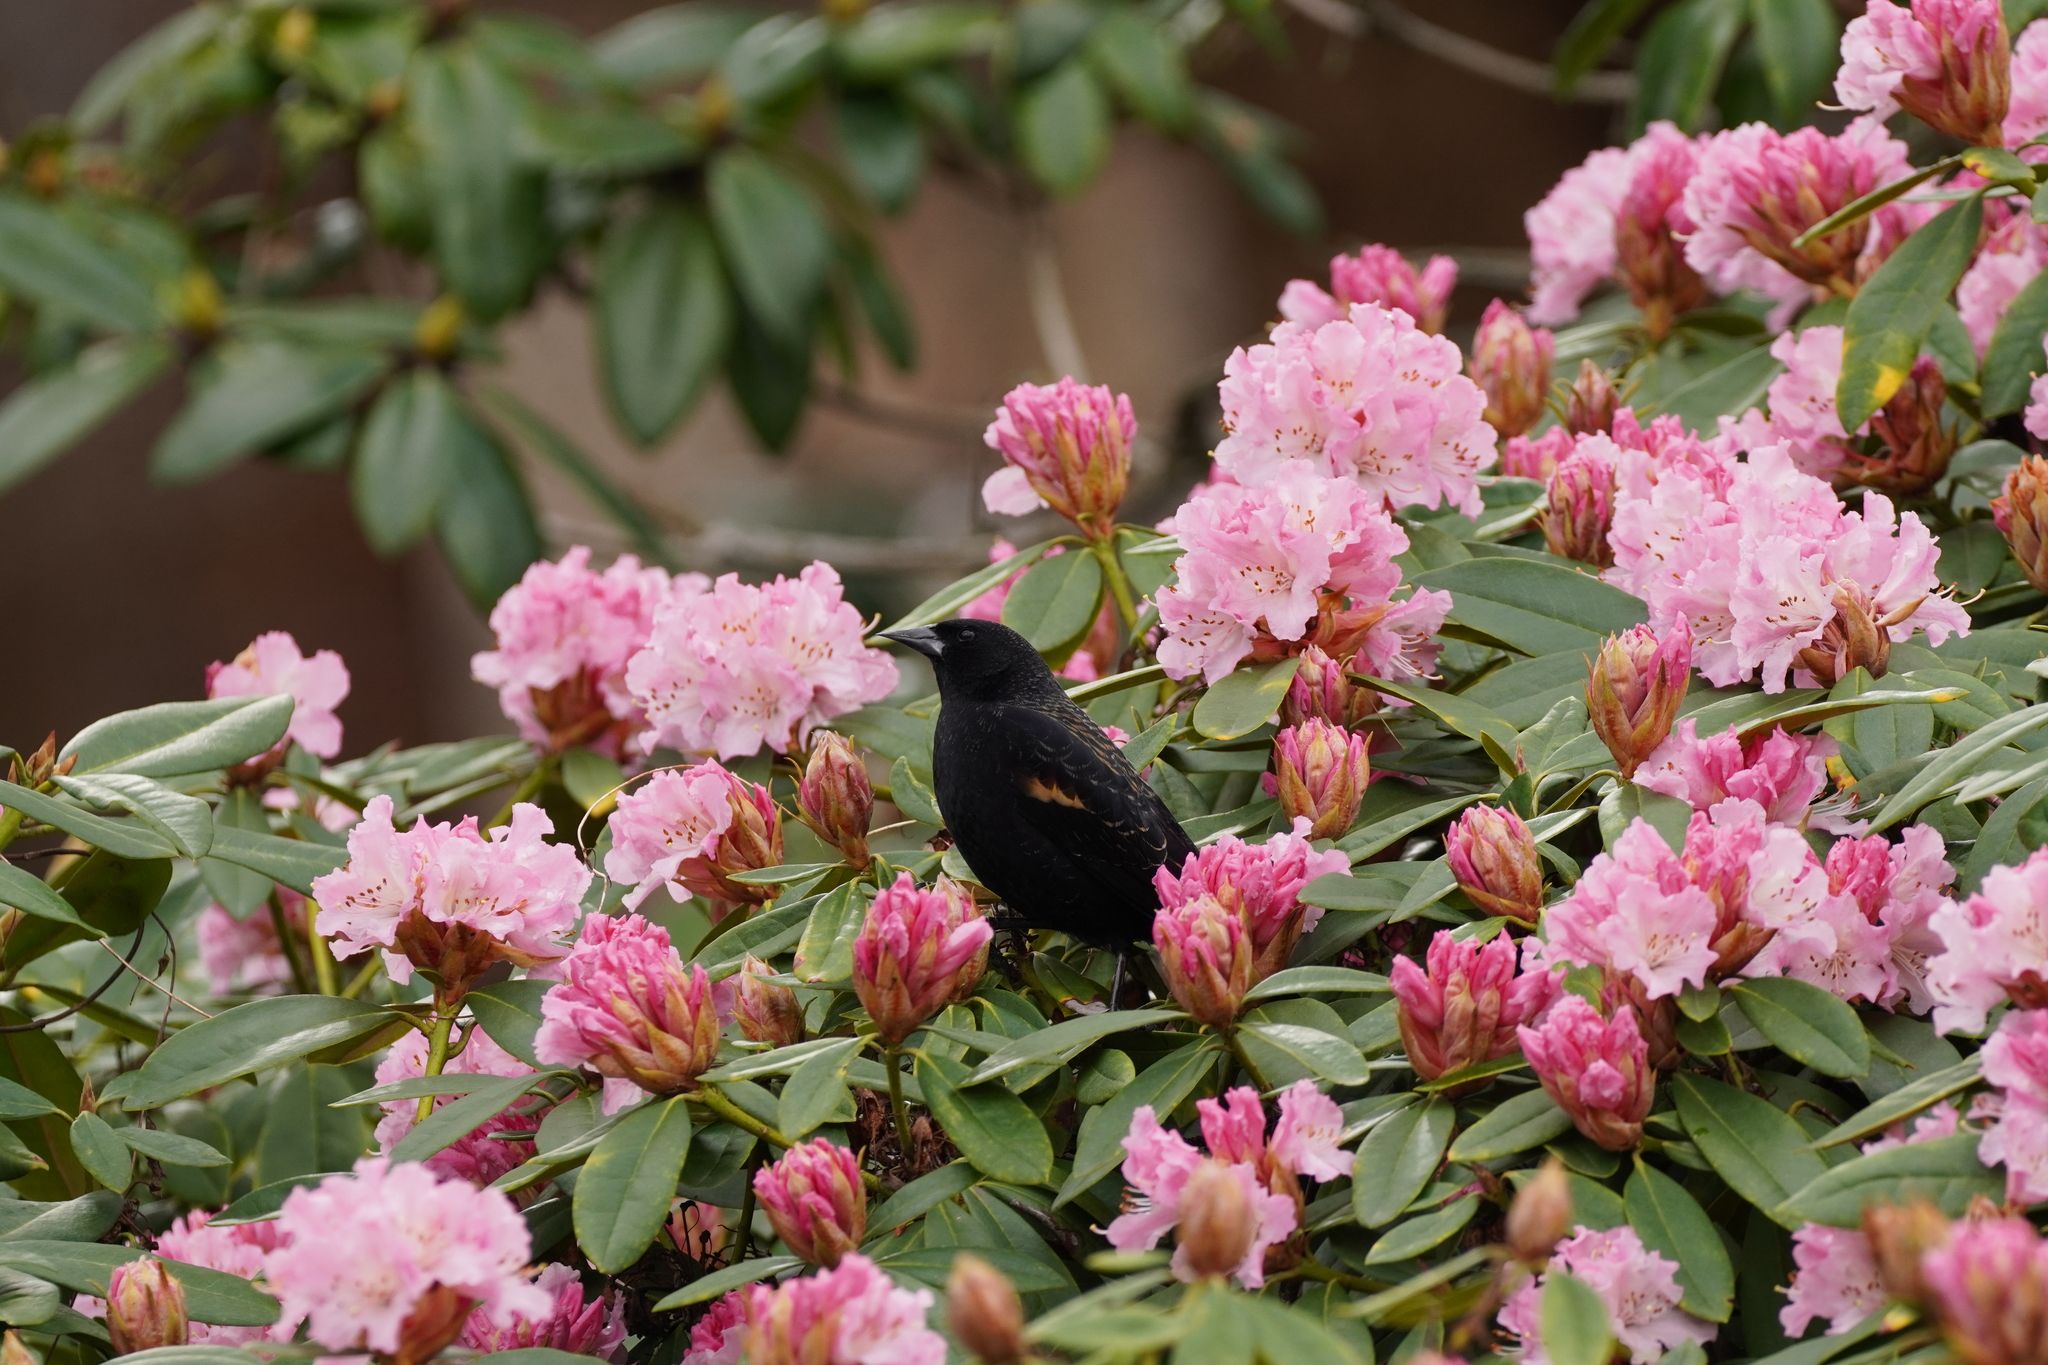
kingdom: Animalia
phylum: Chordata
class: Aves
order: Passeriformes
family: Icteridae
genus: Agelaius
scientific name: Agelaius phoeniceus
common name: Red-winged blackbird
